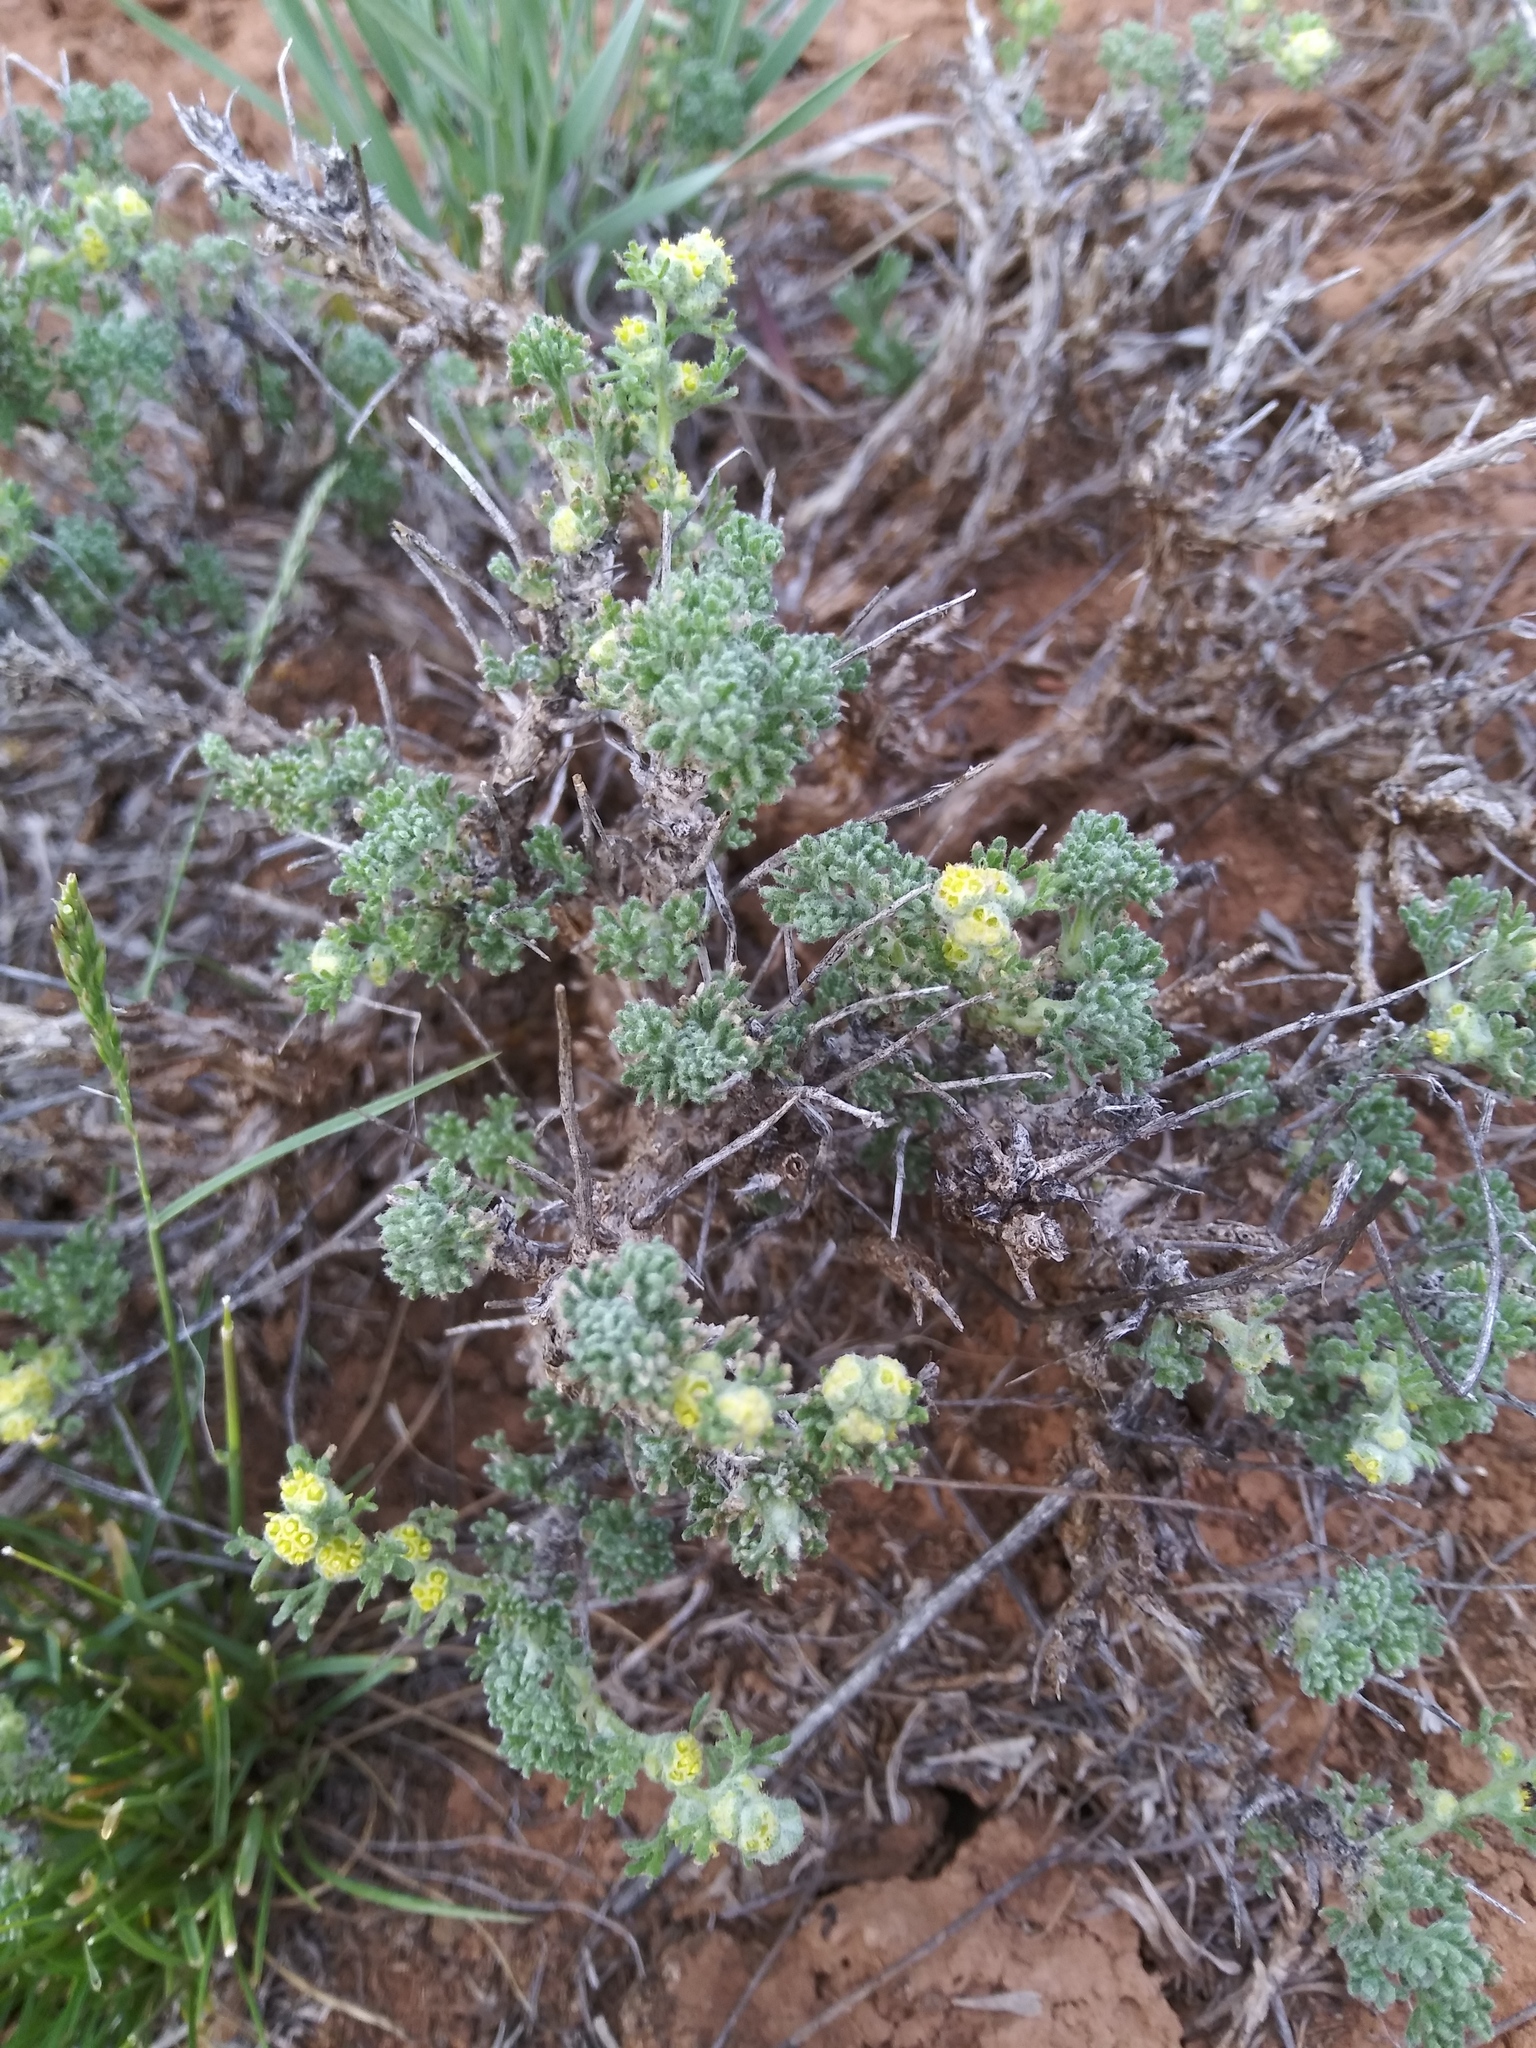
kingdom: Plantae
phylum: Tracheophyta
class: Magnoliopsida
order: Asterales
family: Asteraceae
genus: Artemisia
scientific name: Artemisia spinescens
